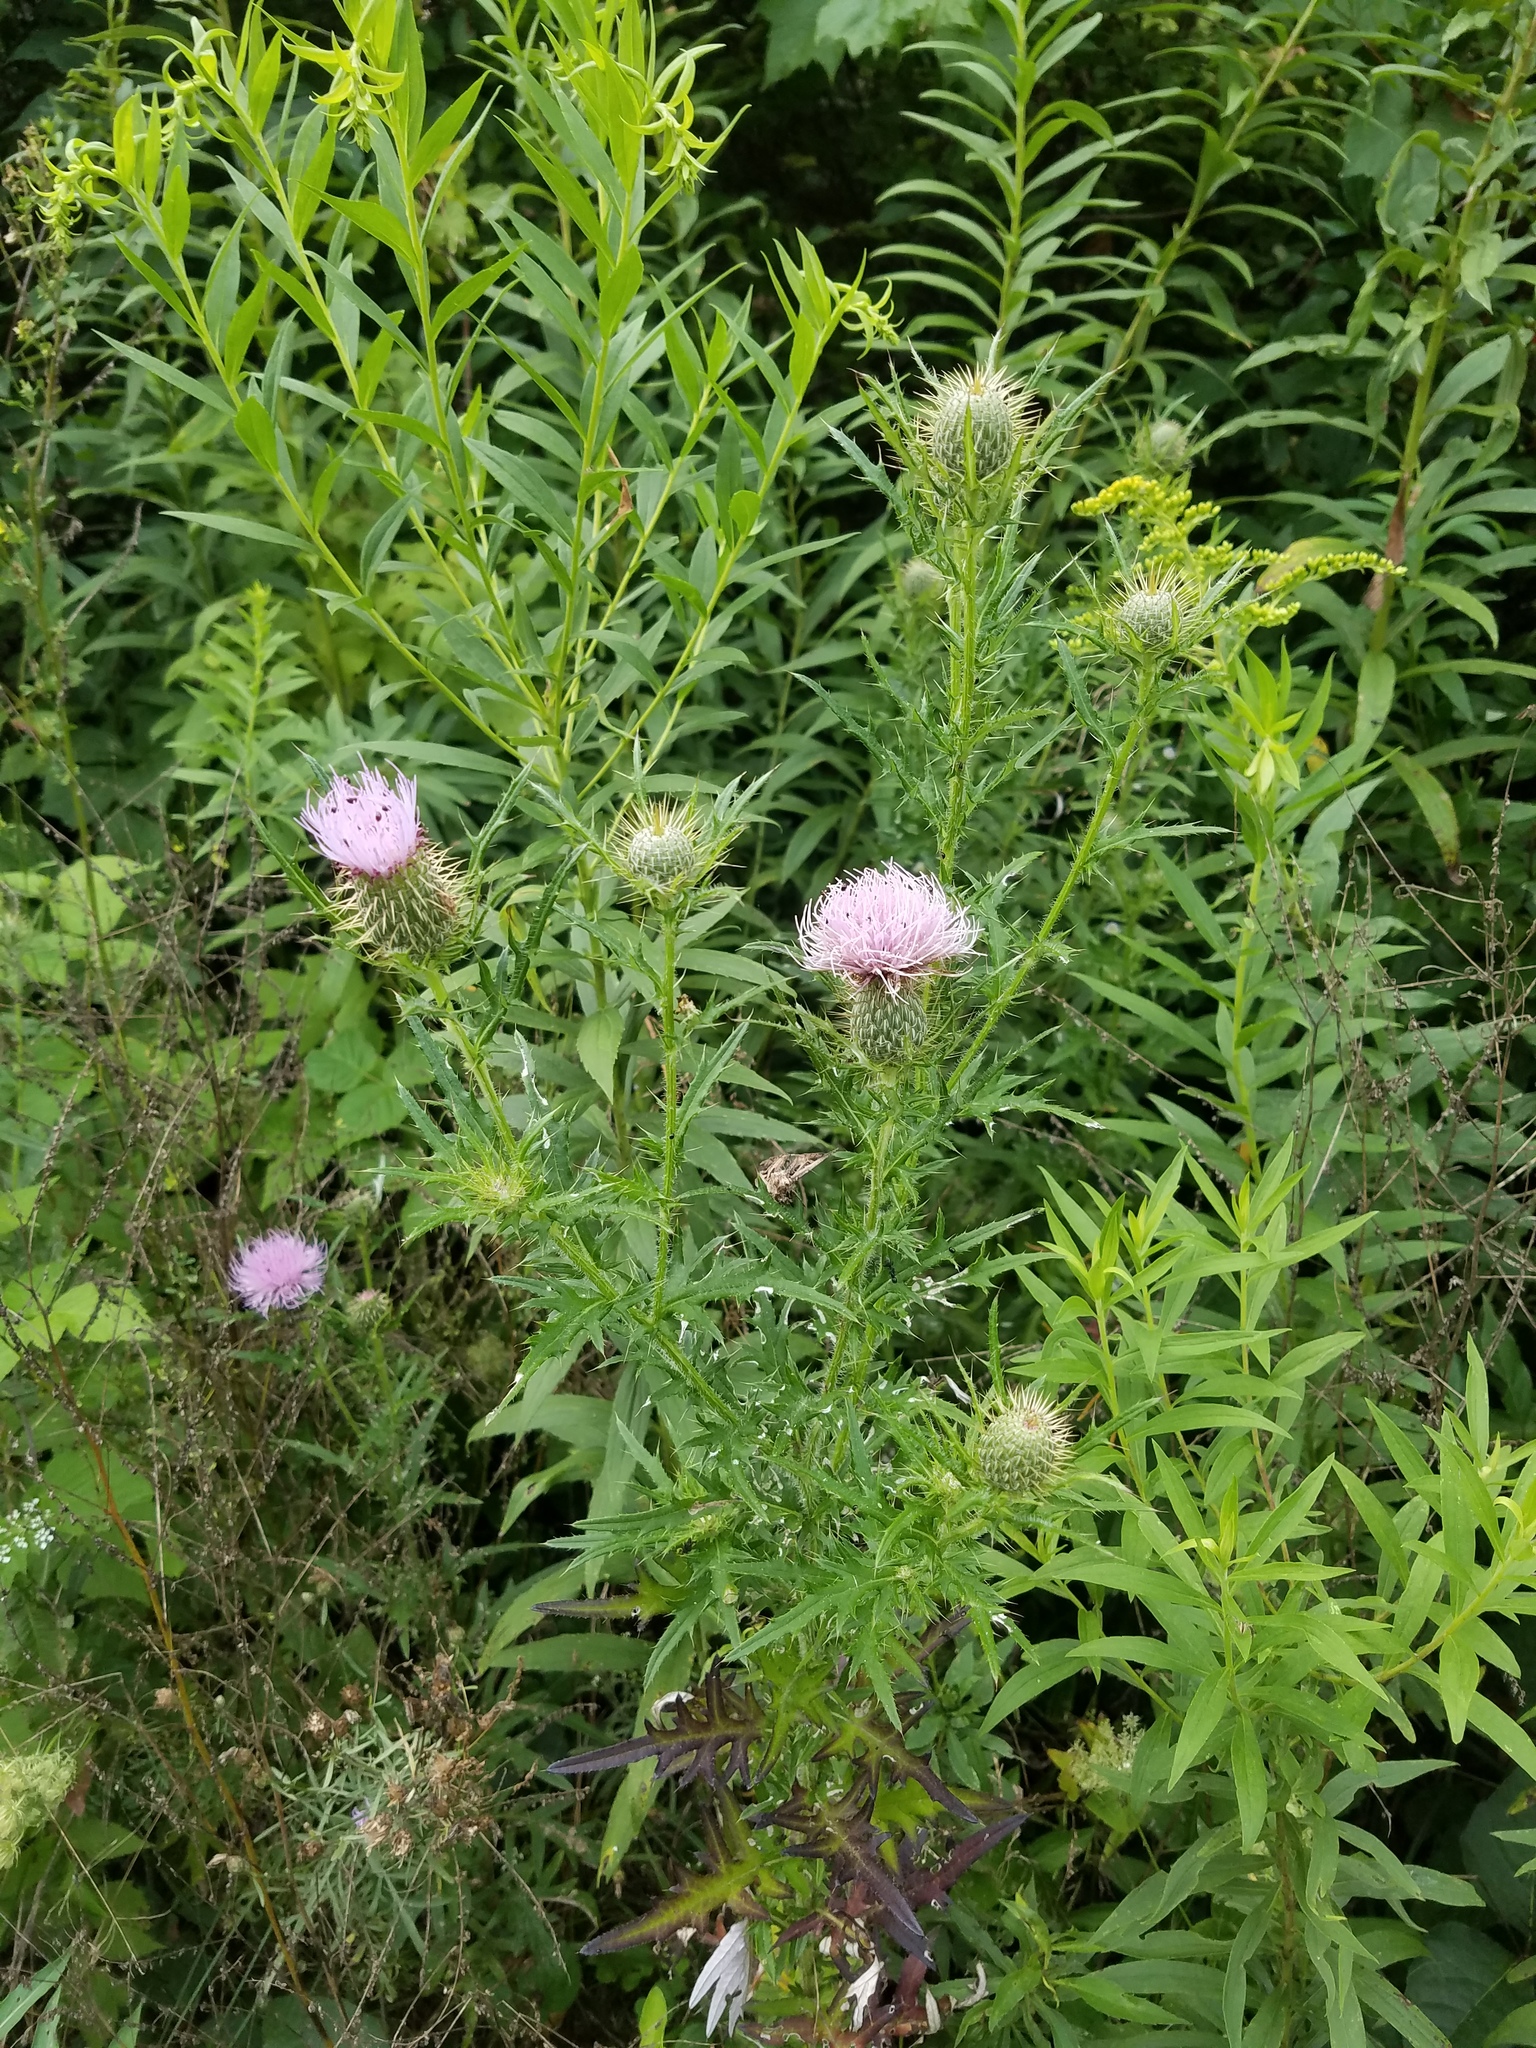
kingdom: Plantae
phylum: Tracheophyta
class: Magnoliopsida
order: Asterales
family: Asteraceae
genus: Cirsium
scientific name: Cirsium discolor
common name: Field thistle
